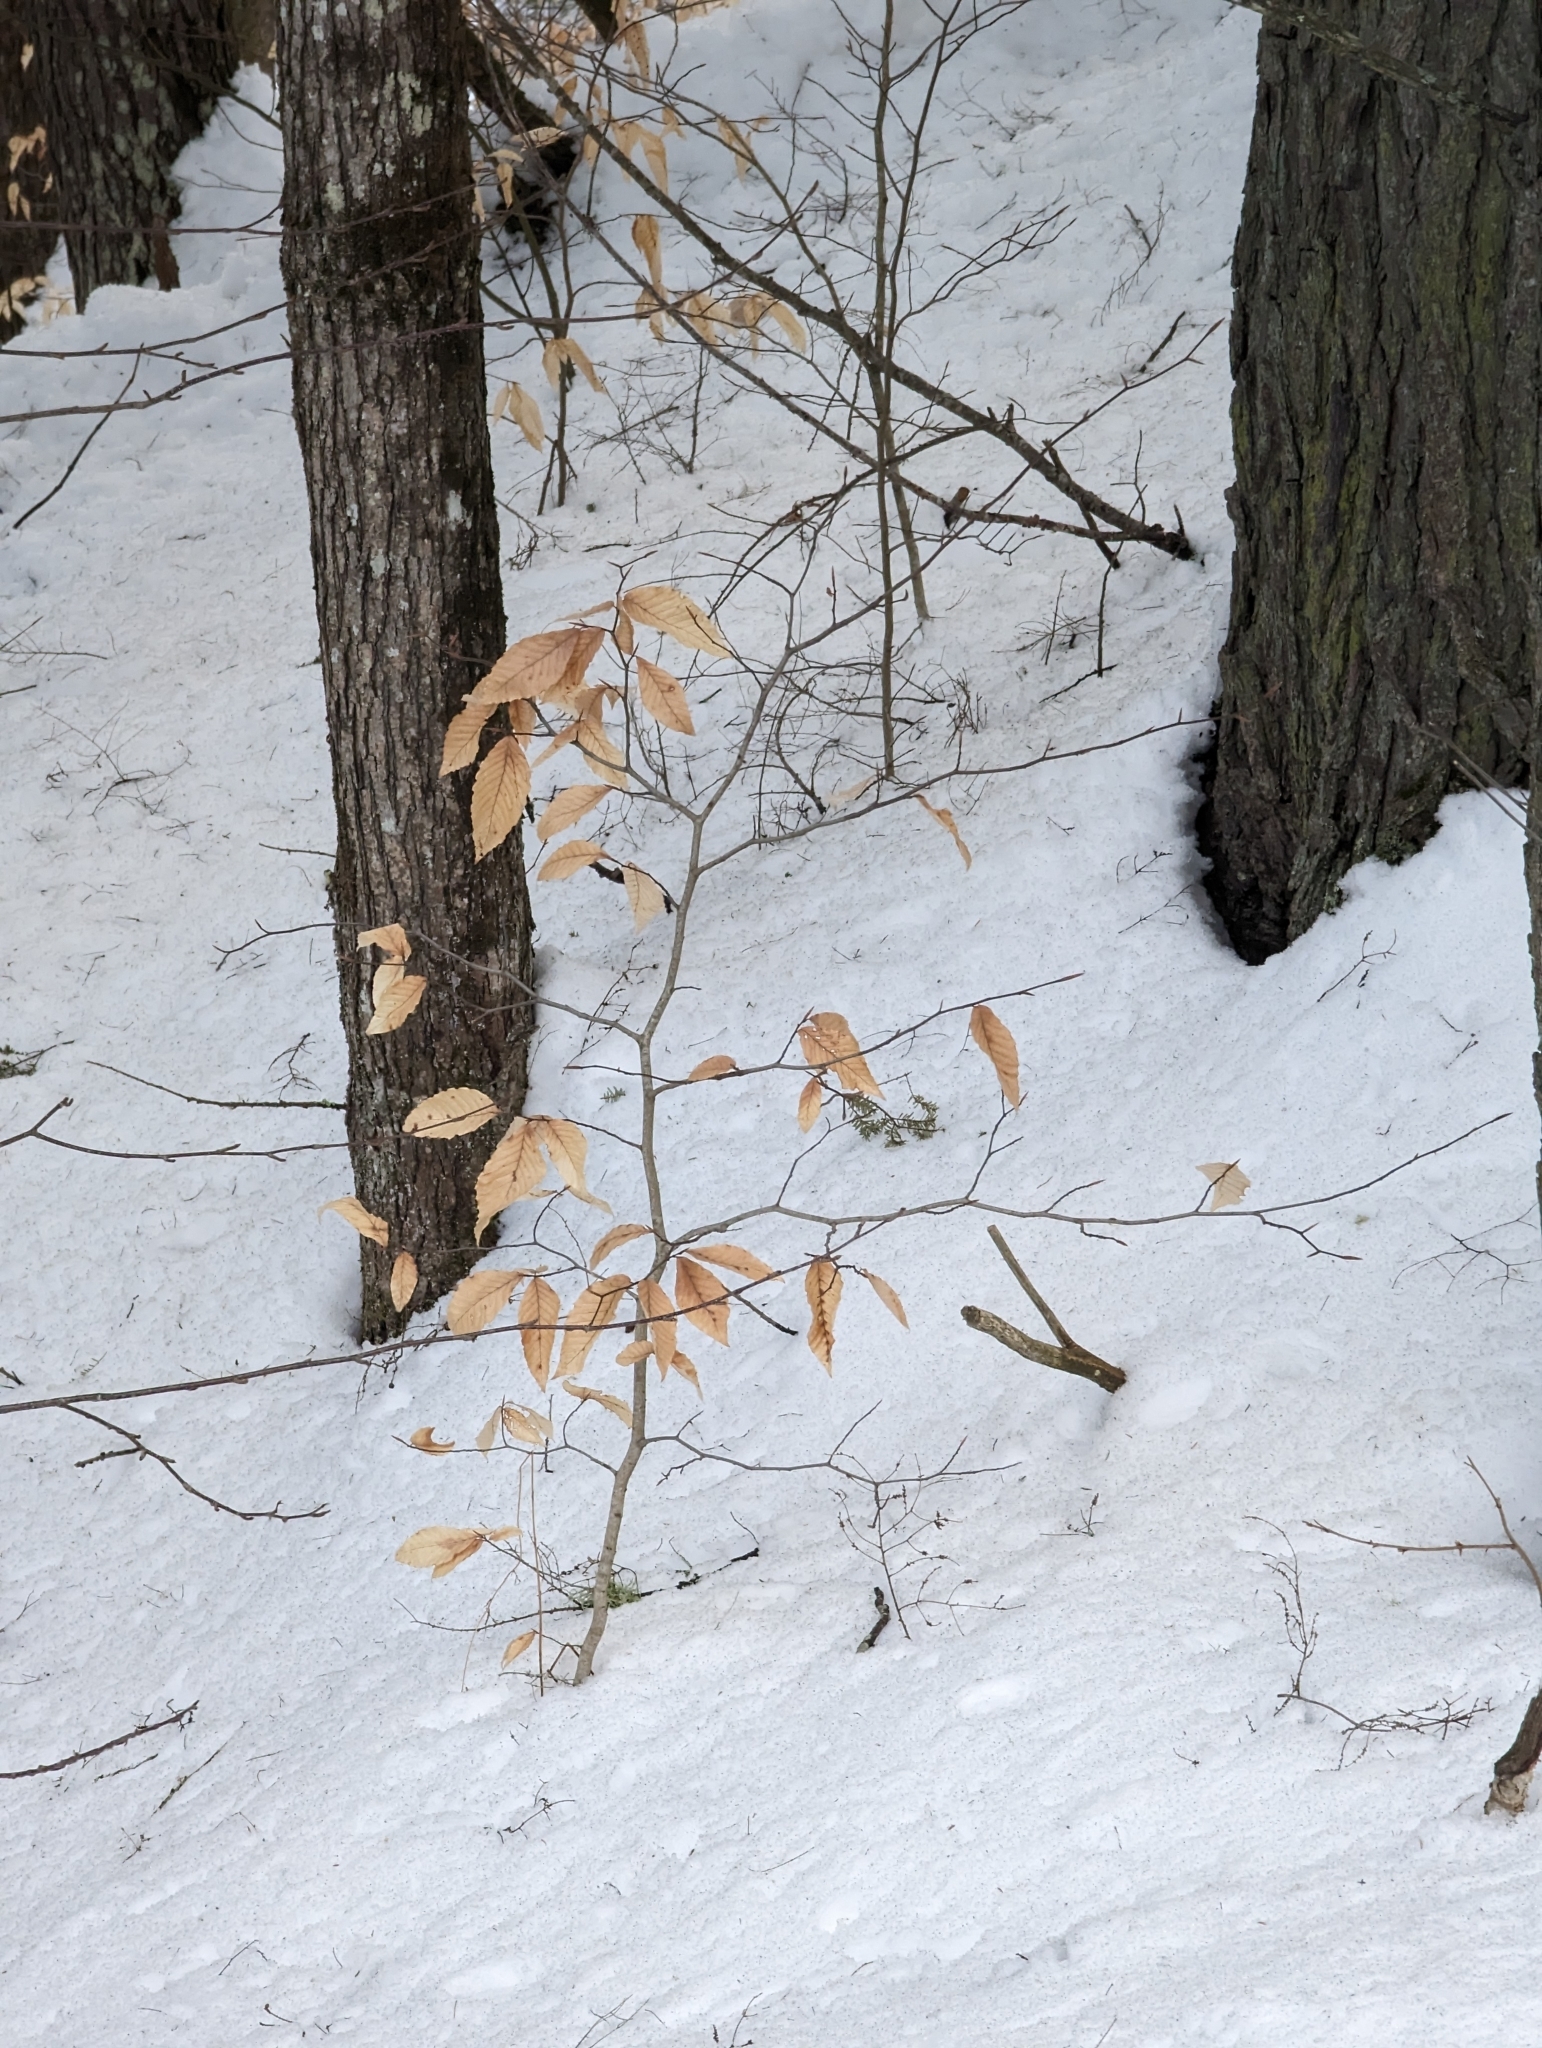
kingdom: Plantae
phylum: Tracheophyta
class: Magnoliopsida
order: Fagales
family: Fagaceae
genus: Fagus
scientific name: Fagus grandifolia
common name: American beech
